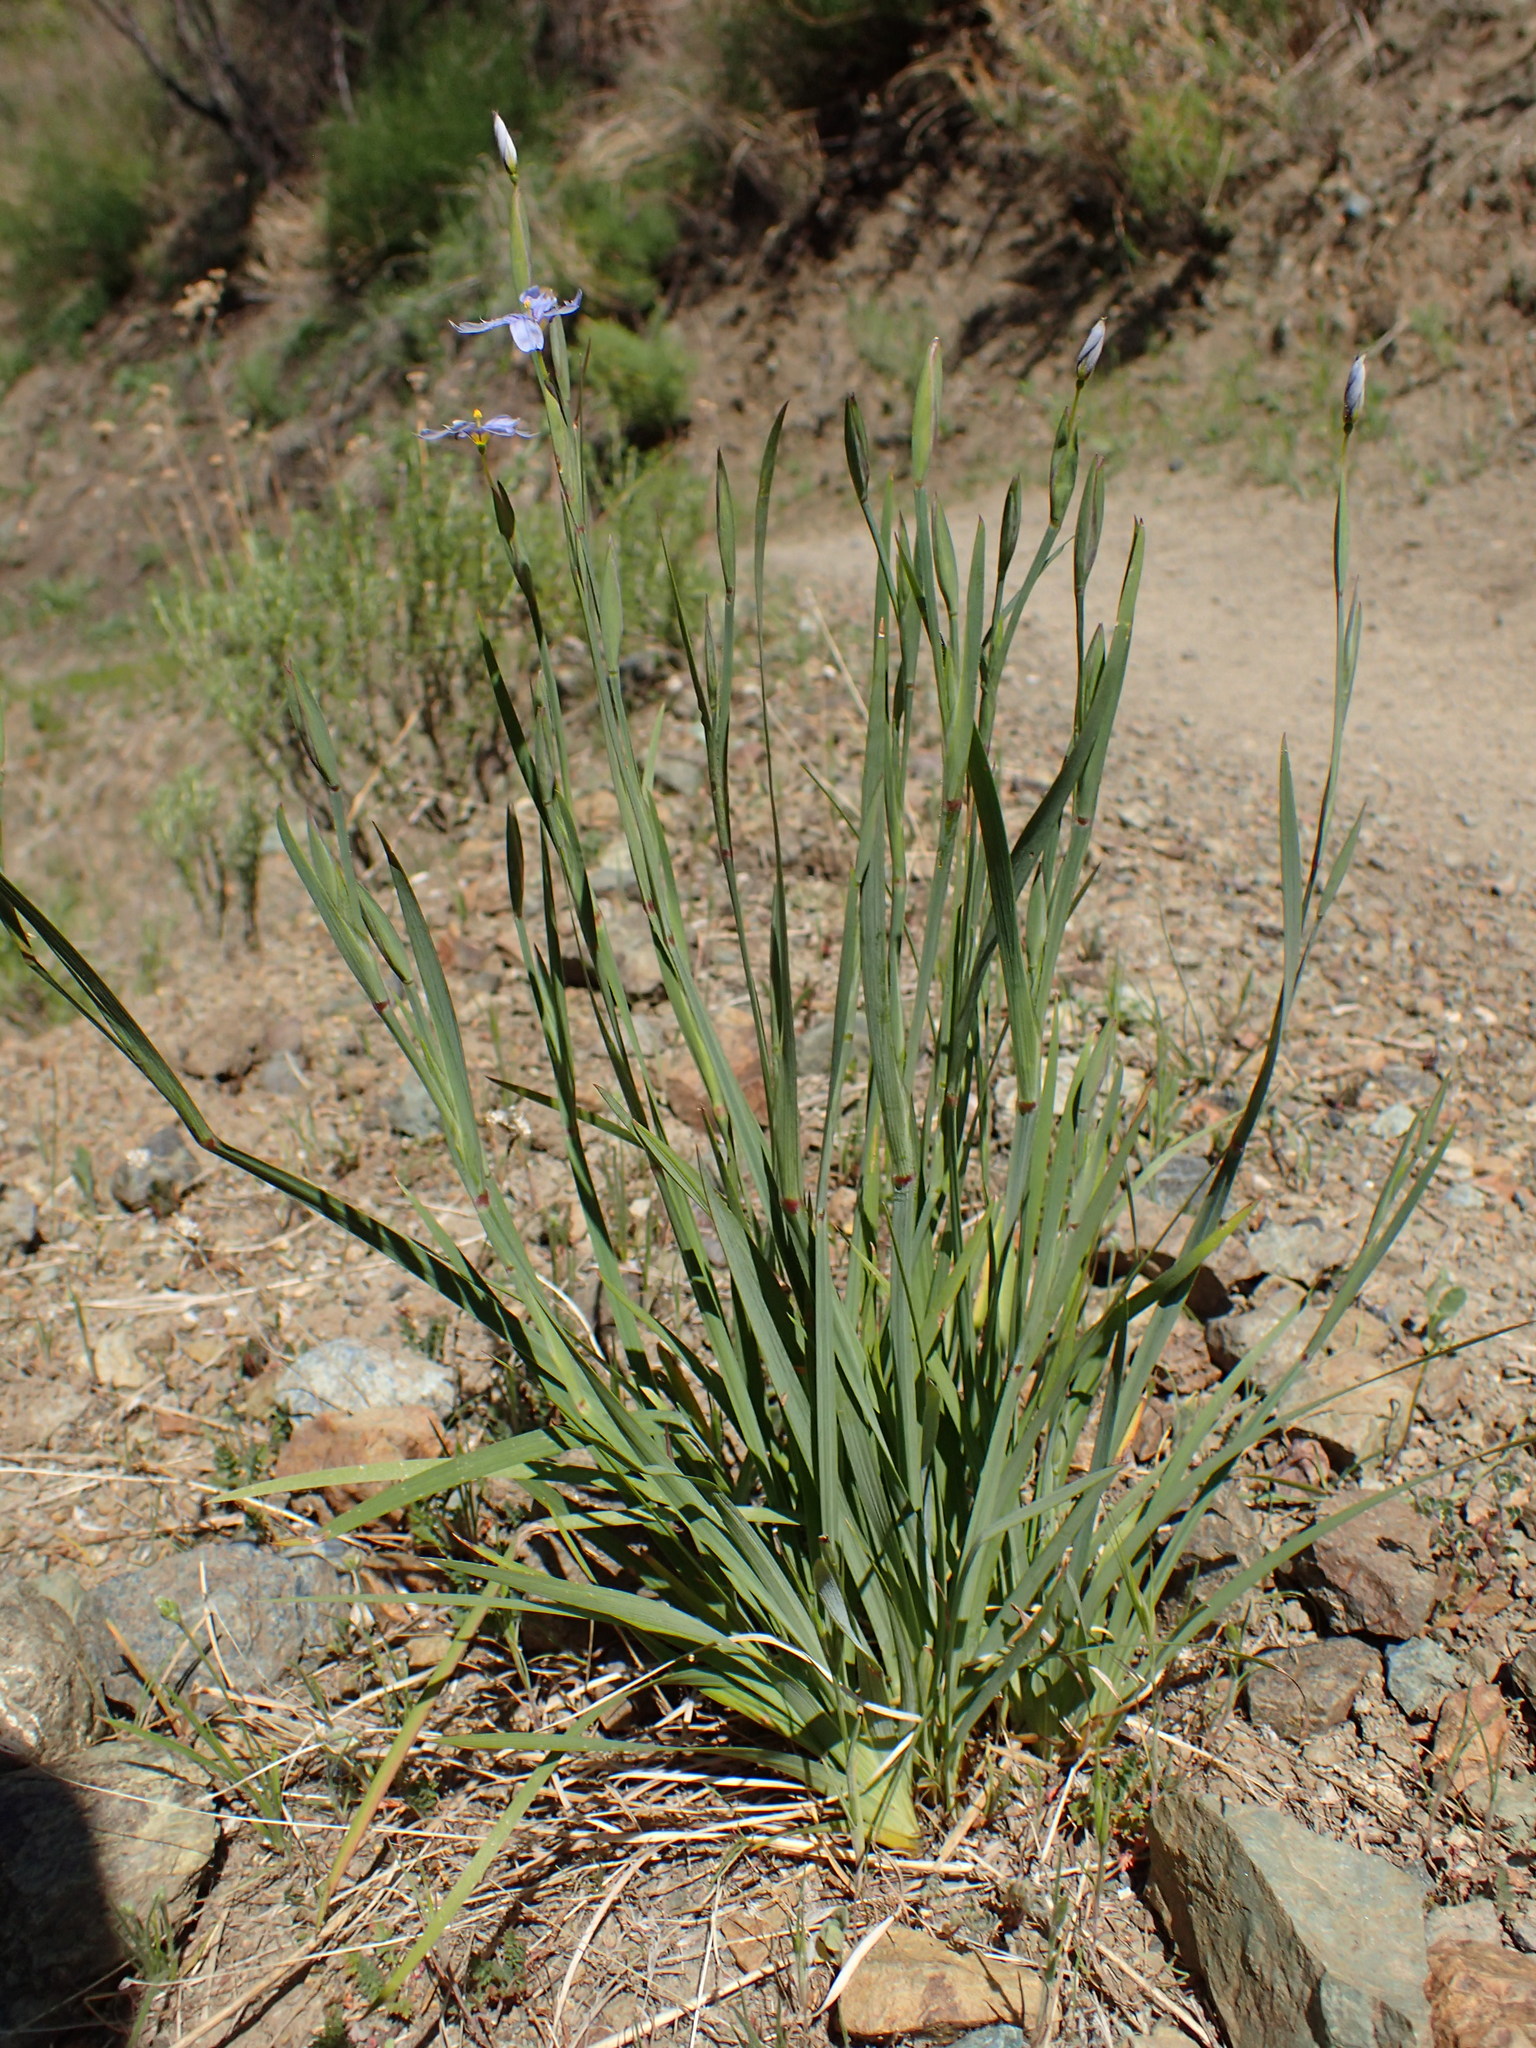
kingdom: Plantae
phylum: Tracheophyta
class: Liliopsida
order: Asparagales
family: Iridaceae
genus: Sisyrinchium
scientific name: Sisyrinchium bellum
